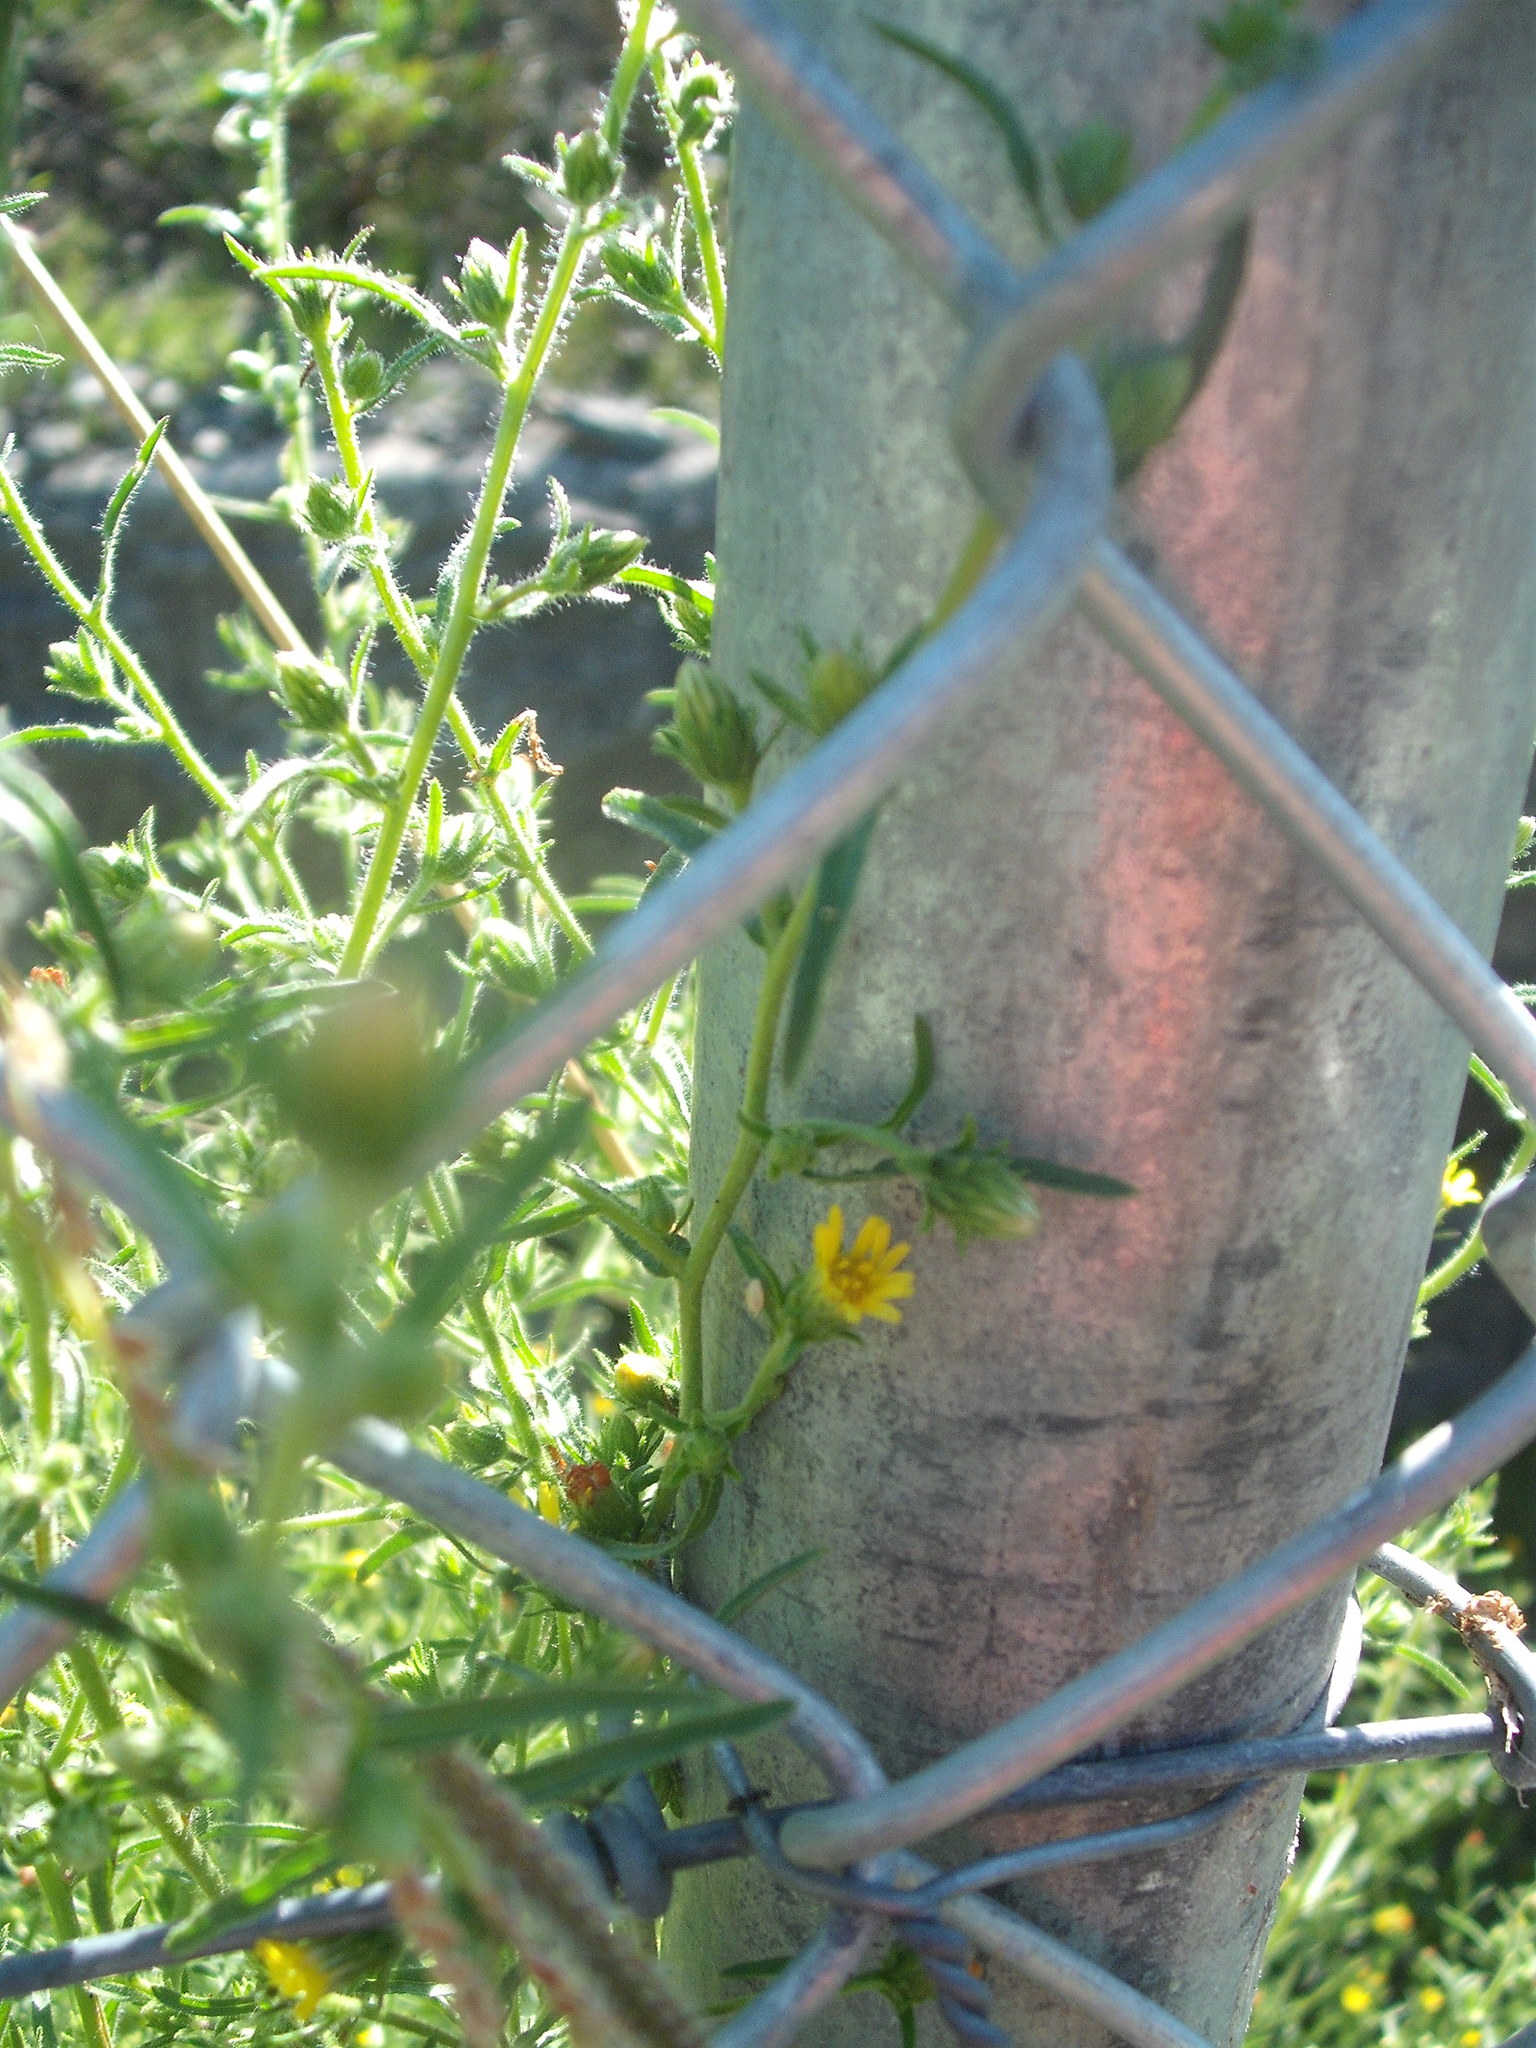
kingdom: Plantae
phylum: Tracheophyta
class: Magnoliopsida
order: Asterales
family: Asteraceae
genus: Dittrichia
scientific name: Dittrichia graveolens
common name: Stinking fleabane
